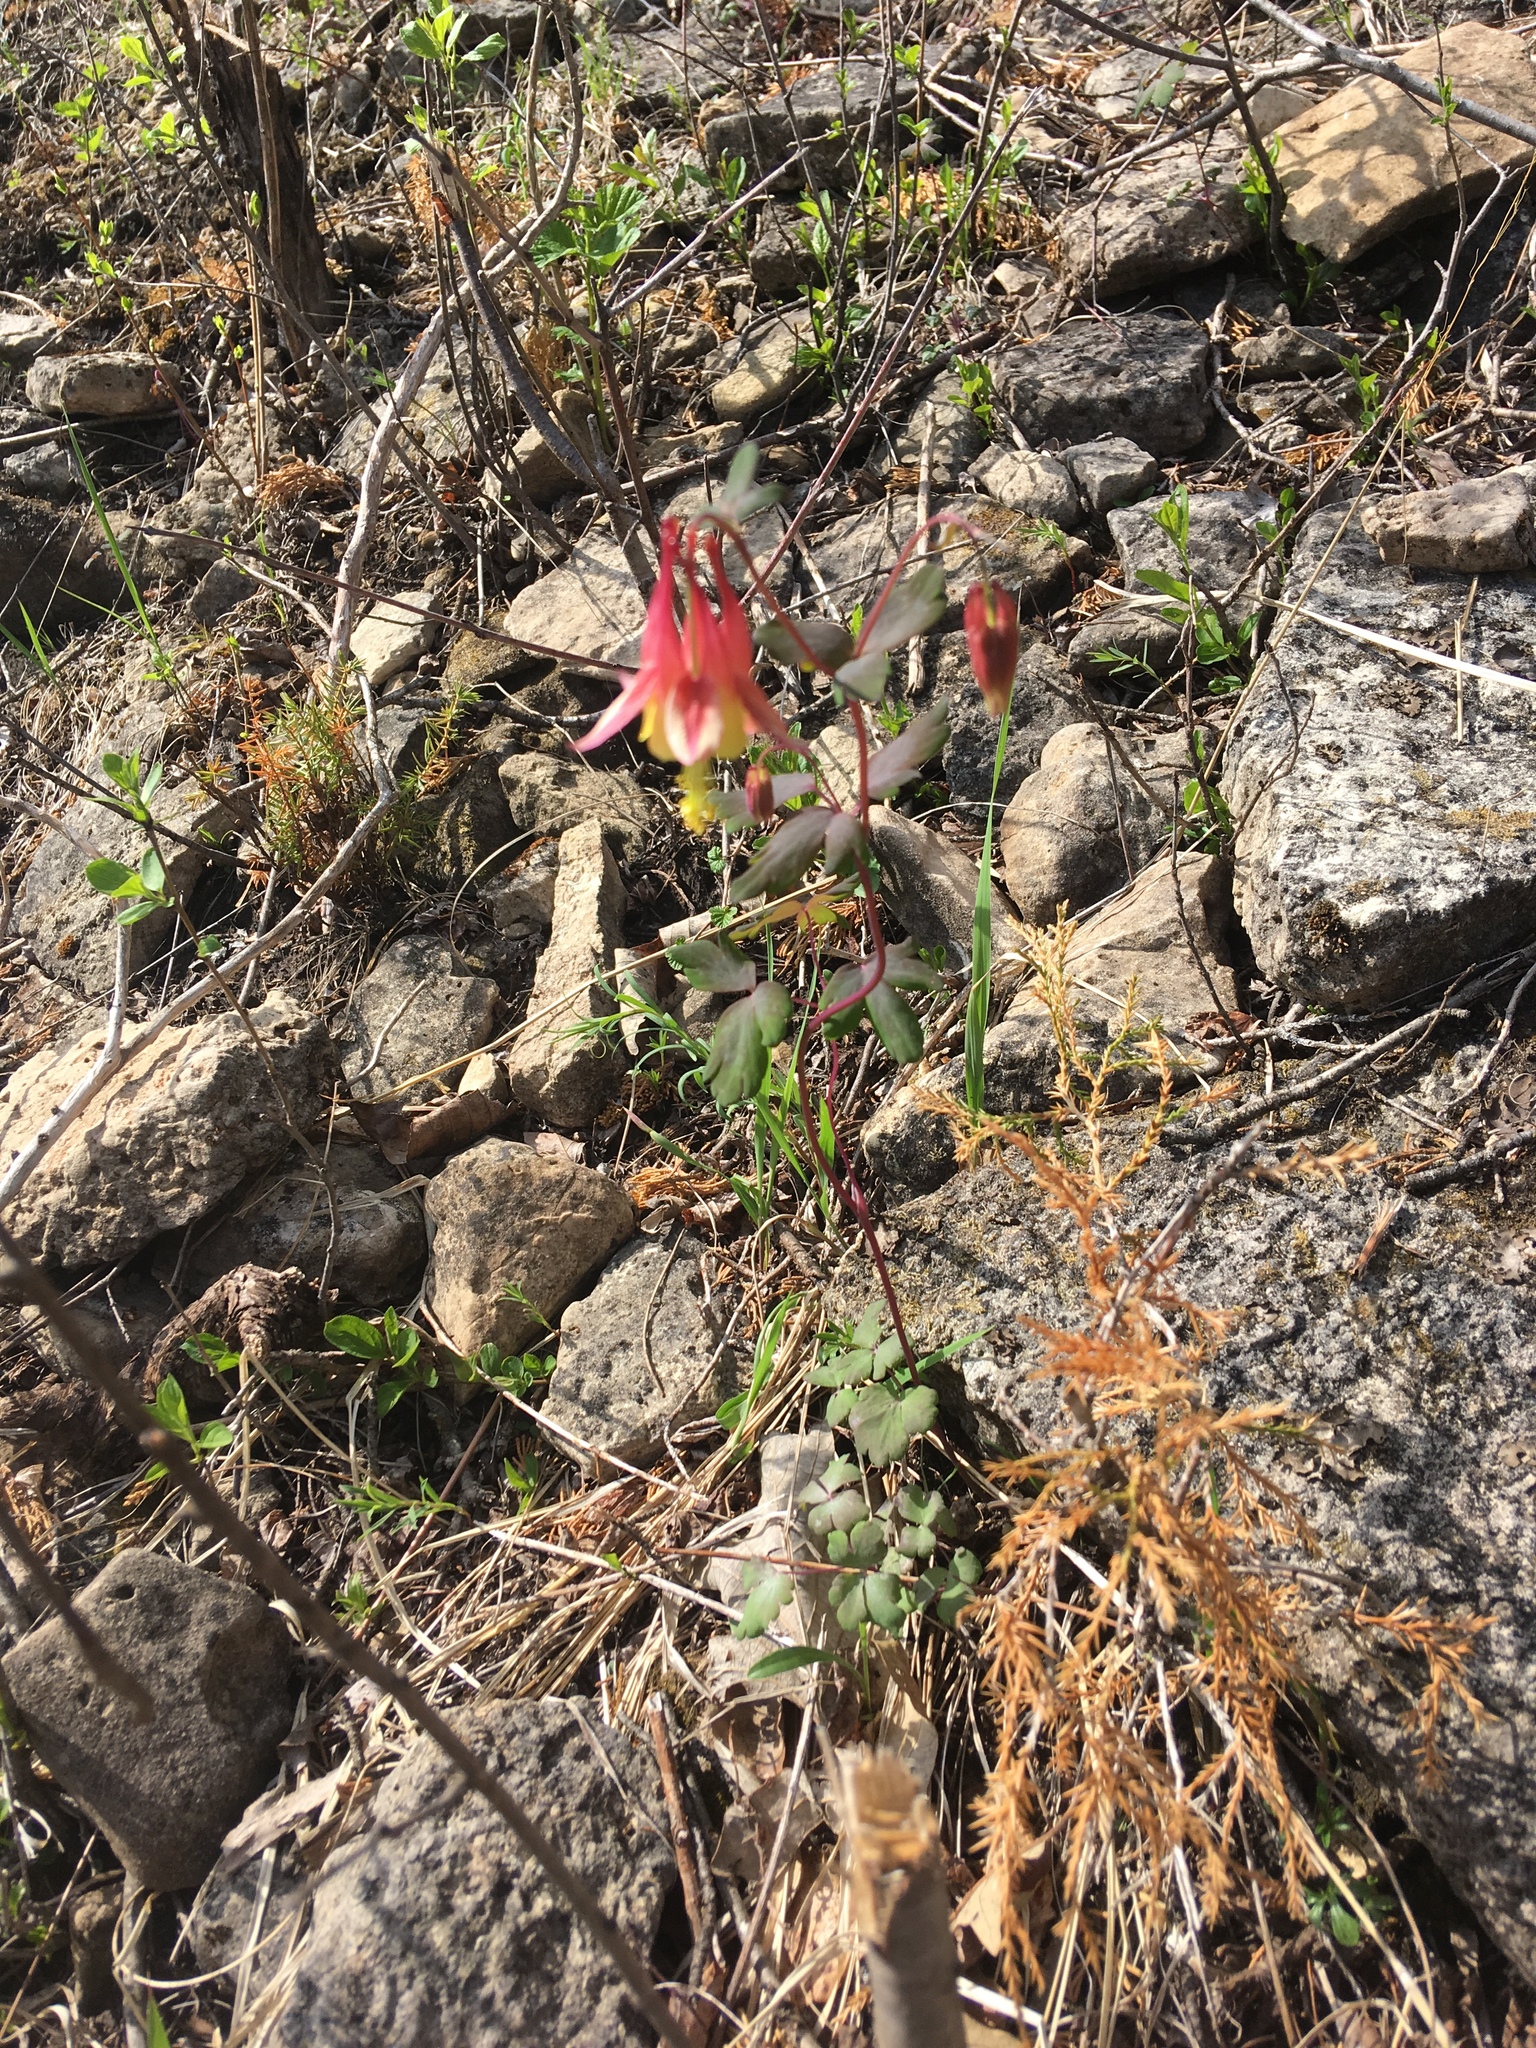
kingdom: Plantae
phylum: Tracheophyta
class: Magnoliopsida
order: Ranunculales
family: Ranunculaceae
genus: Aquilegia
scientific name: Aquilegia canadensis
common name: American columbine
